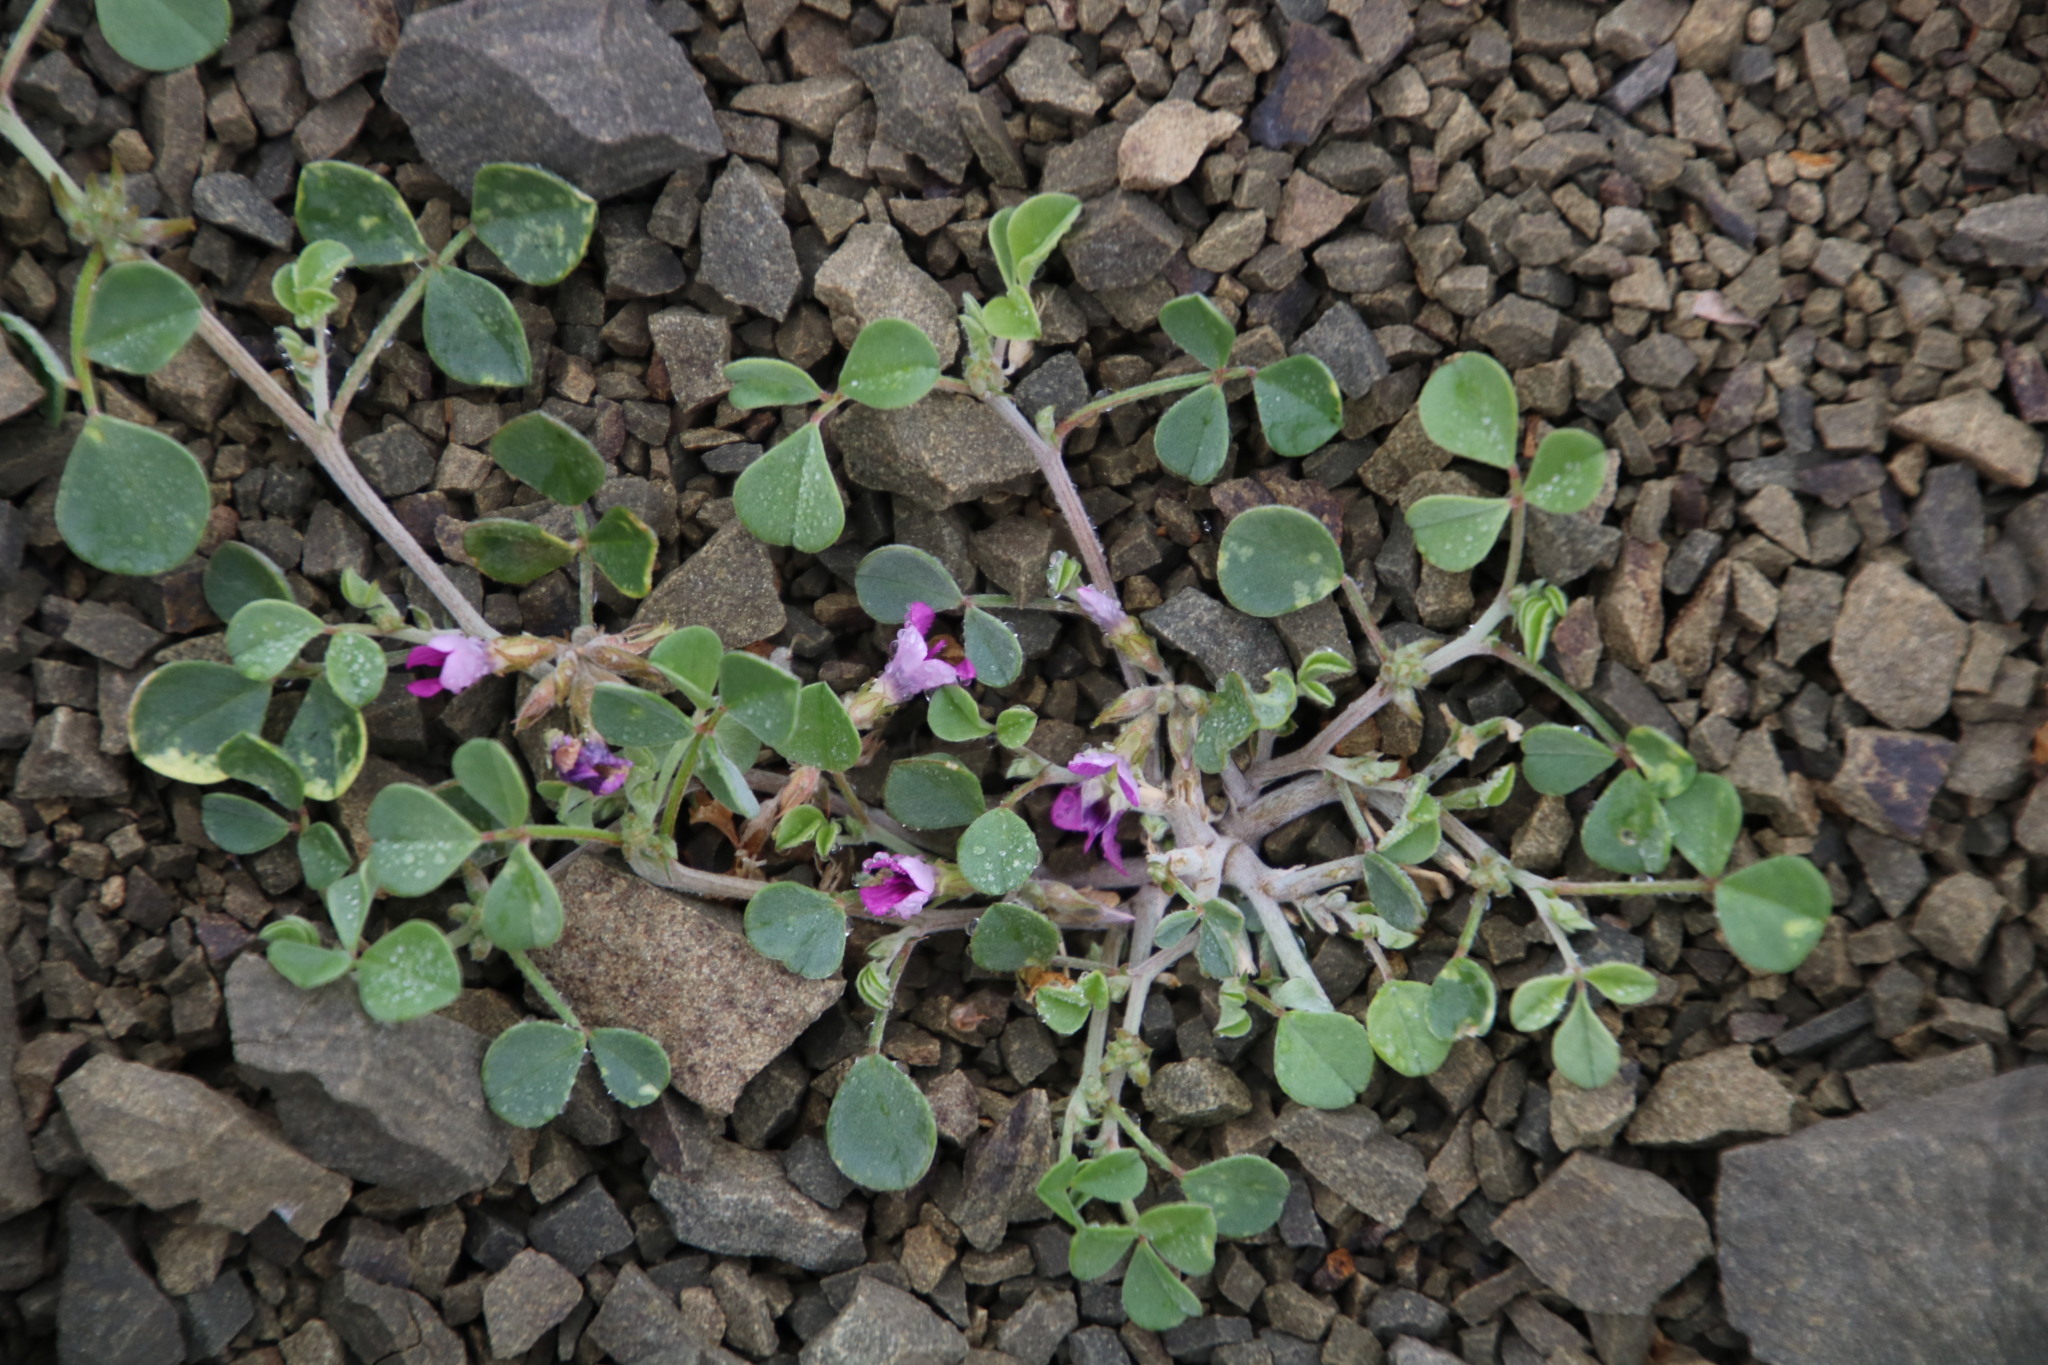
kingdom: Plantae
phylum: Tracheophyta
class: Magnoliopsida
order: Fabales
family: Fabaceae
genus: Indigastrum
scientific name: Indigastrum niveum
